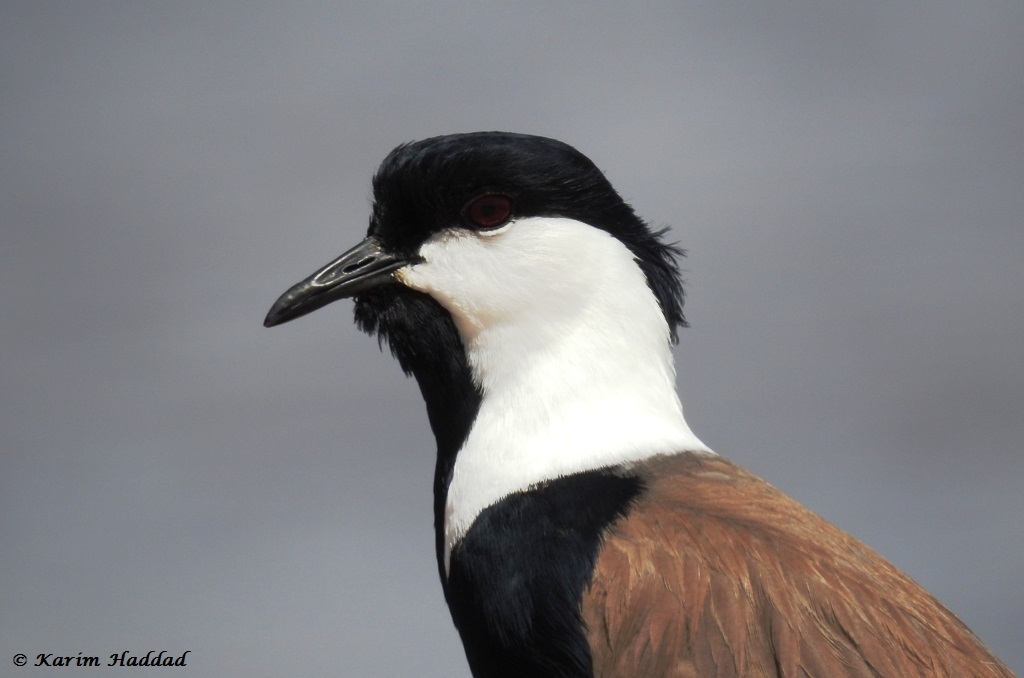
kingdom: Animalia
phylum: Chordata
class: Aves
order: Charadriiformes
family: Charadriidae
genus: Vanellus
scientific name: Vanellus spinosus
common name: Spur-winged lapwing
